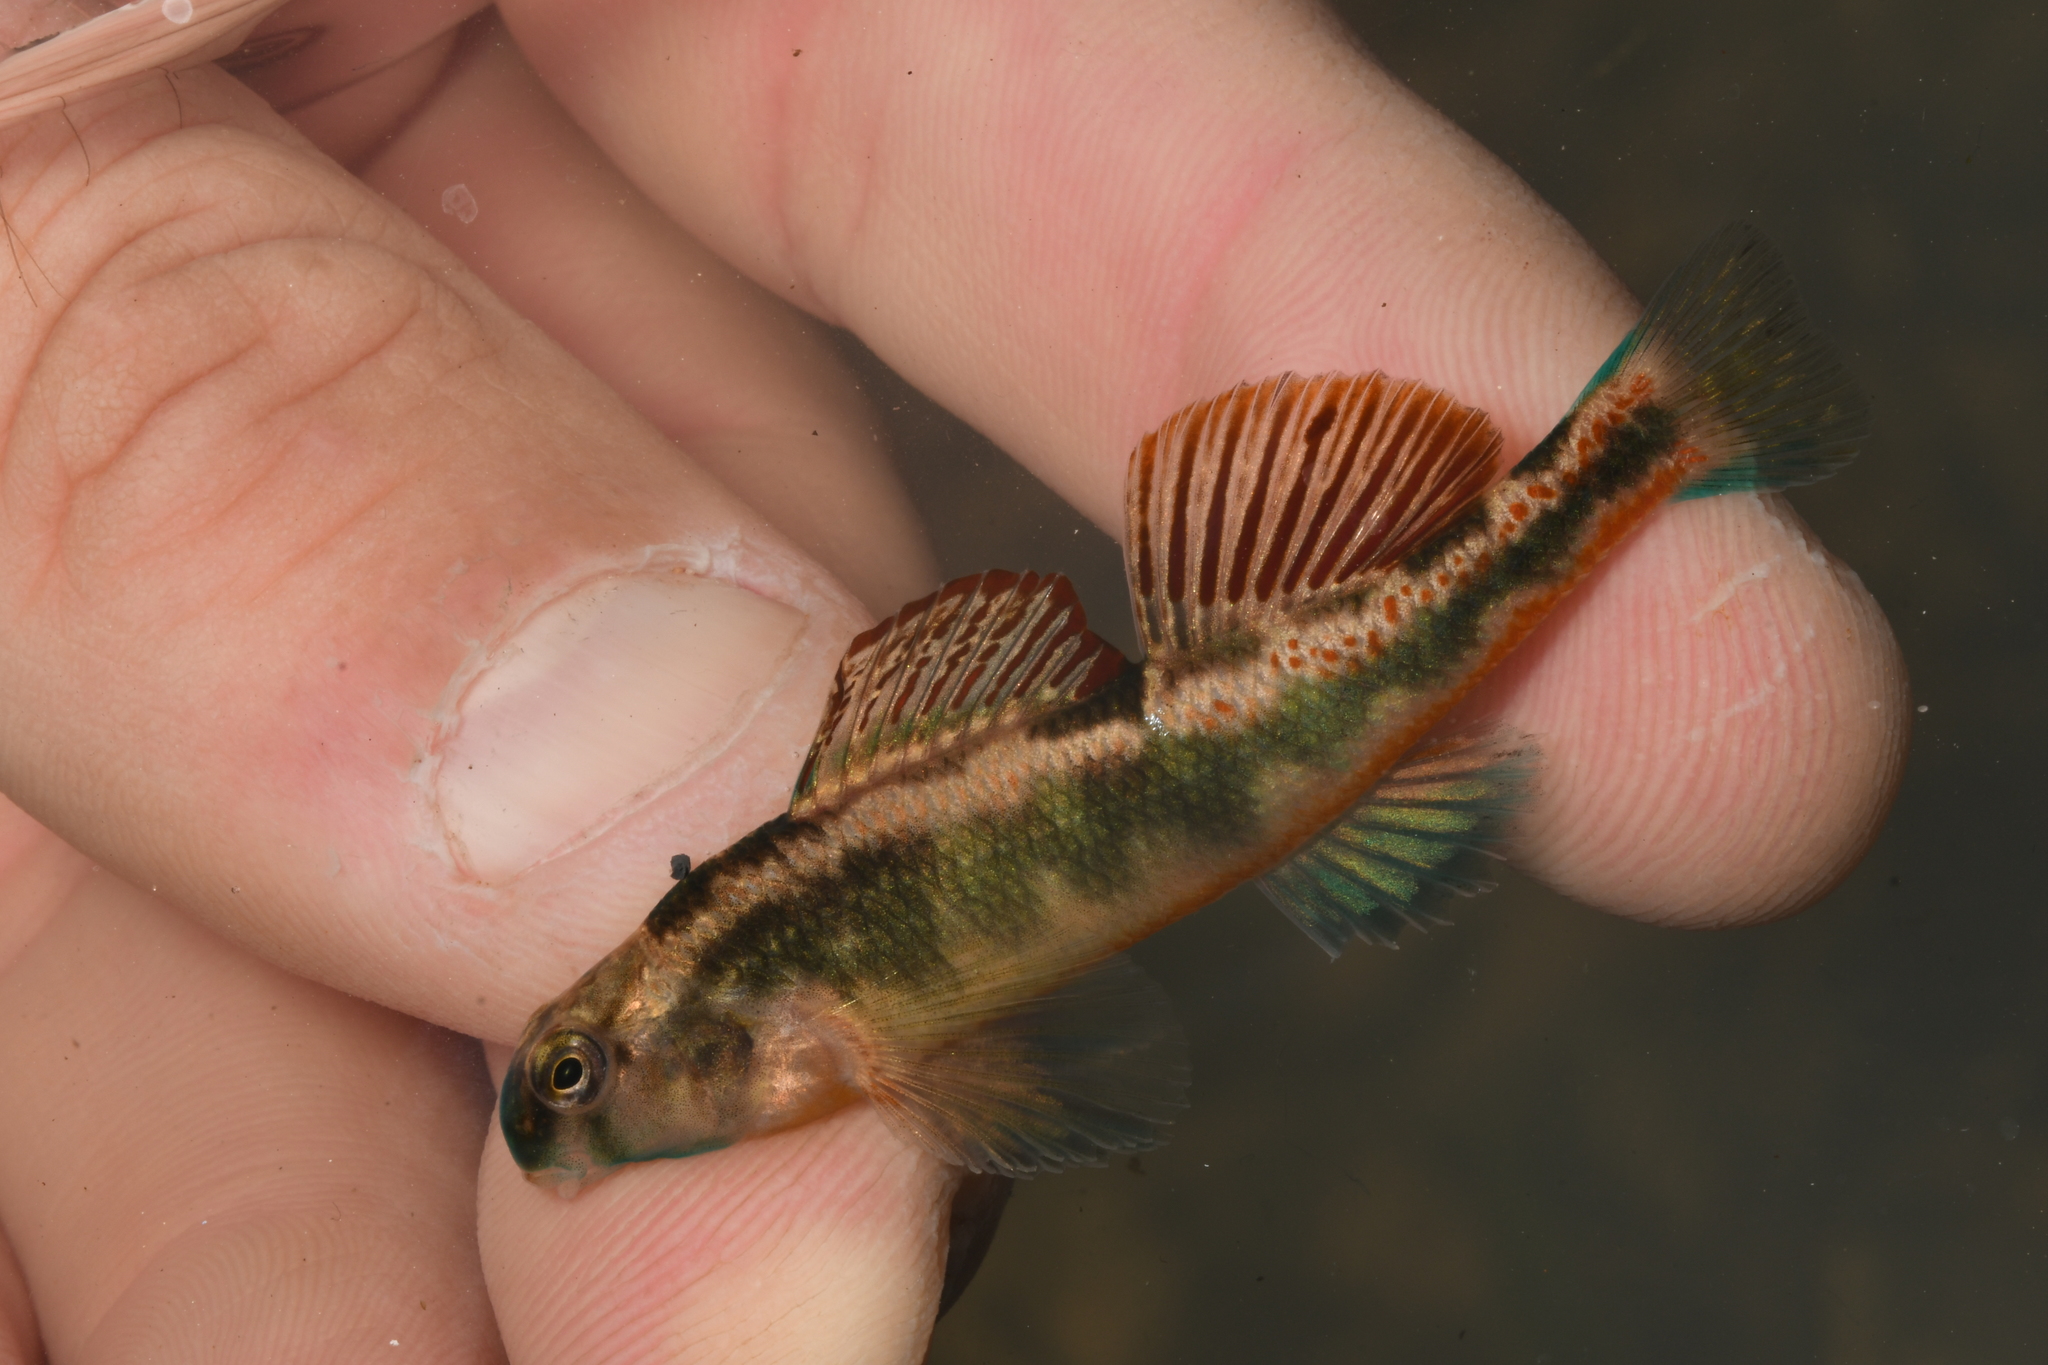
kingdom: Animalia
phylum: Chordata
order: Perciformes
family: Percidae
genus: Etheostoma
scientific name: Etheostoma duryi
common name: Blackside snubnose darter
